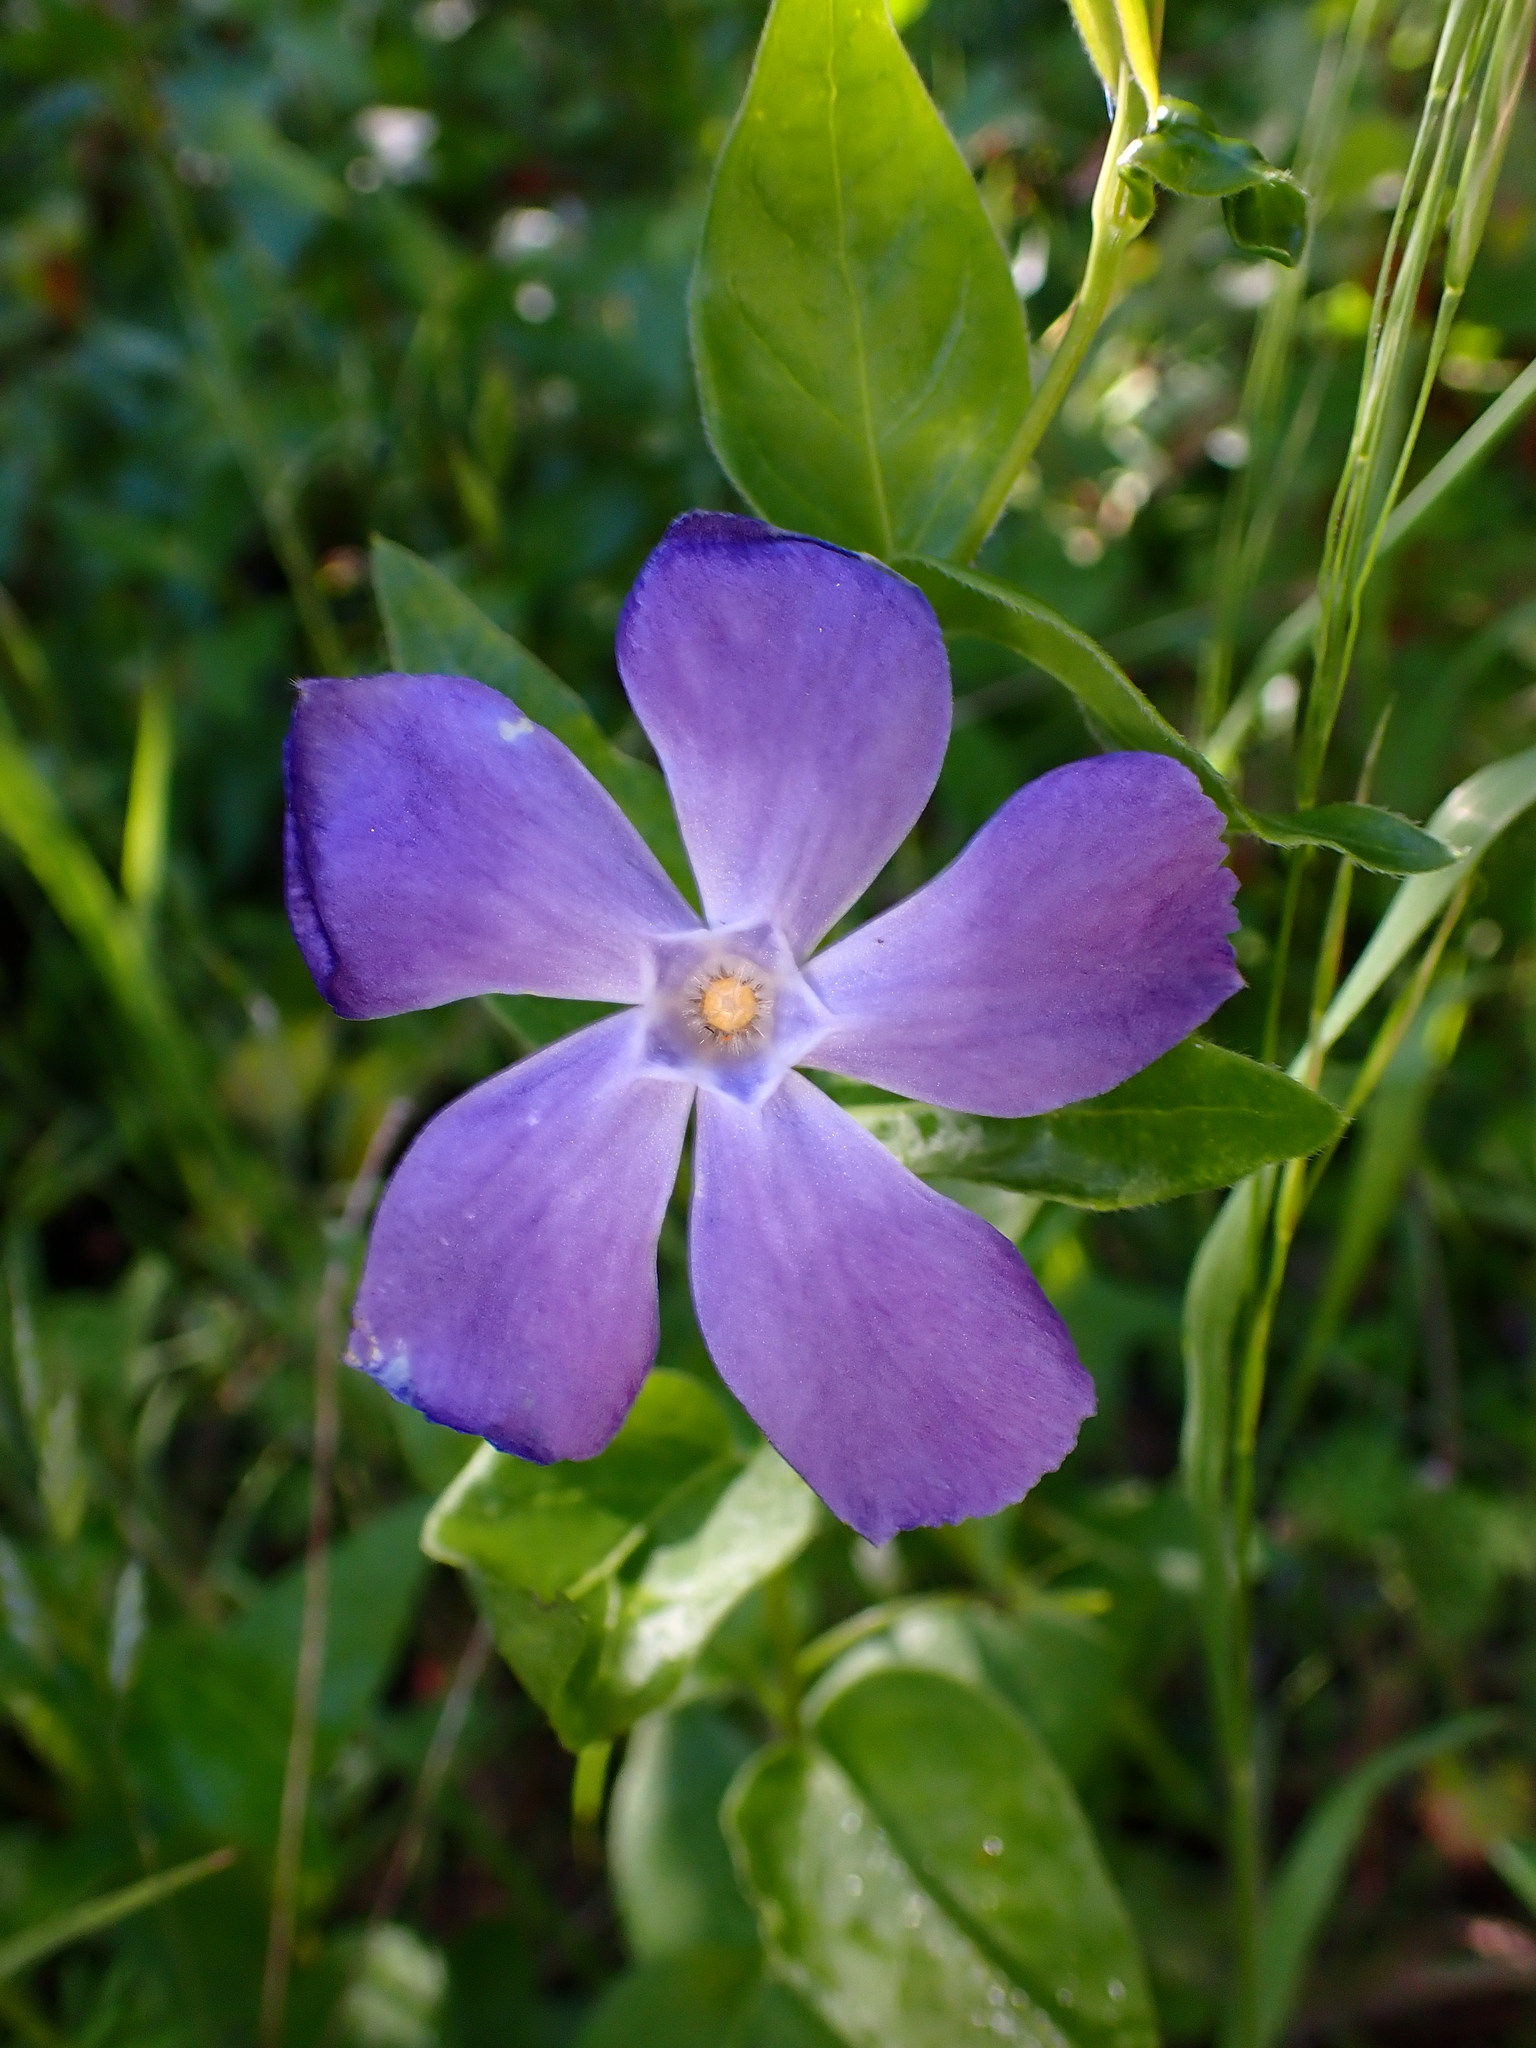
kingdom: Plantae
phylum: Tracheophyta
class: Magnoliopsida
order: Gentianales
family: Apocynaceae
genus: Vinca
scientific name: Vinca major
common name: Greater periwinkle
